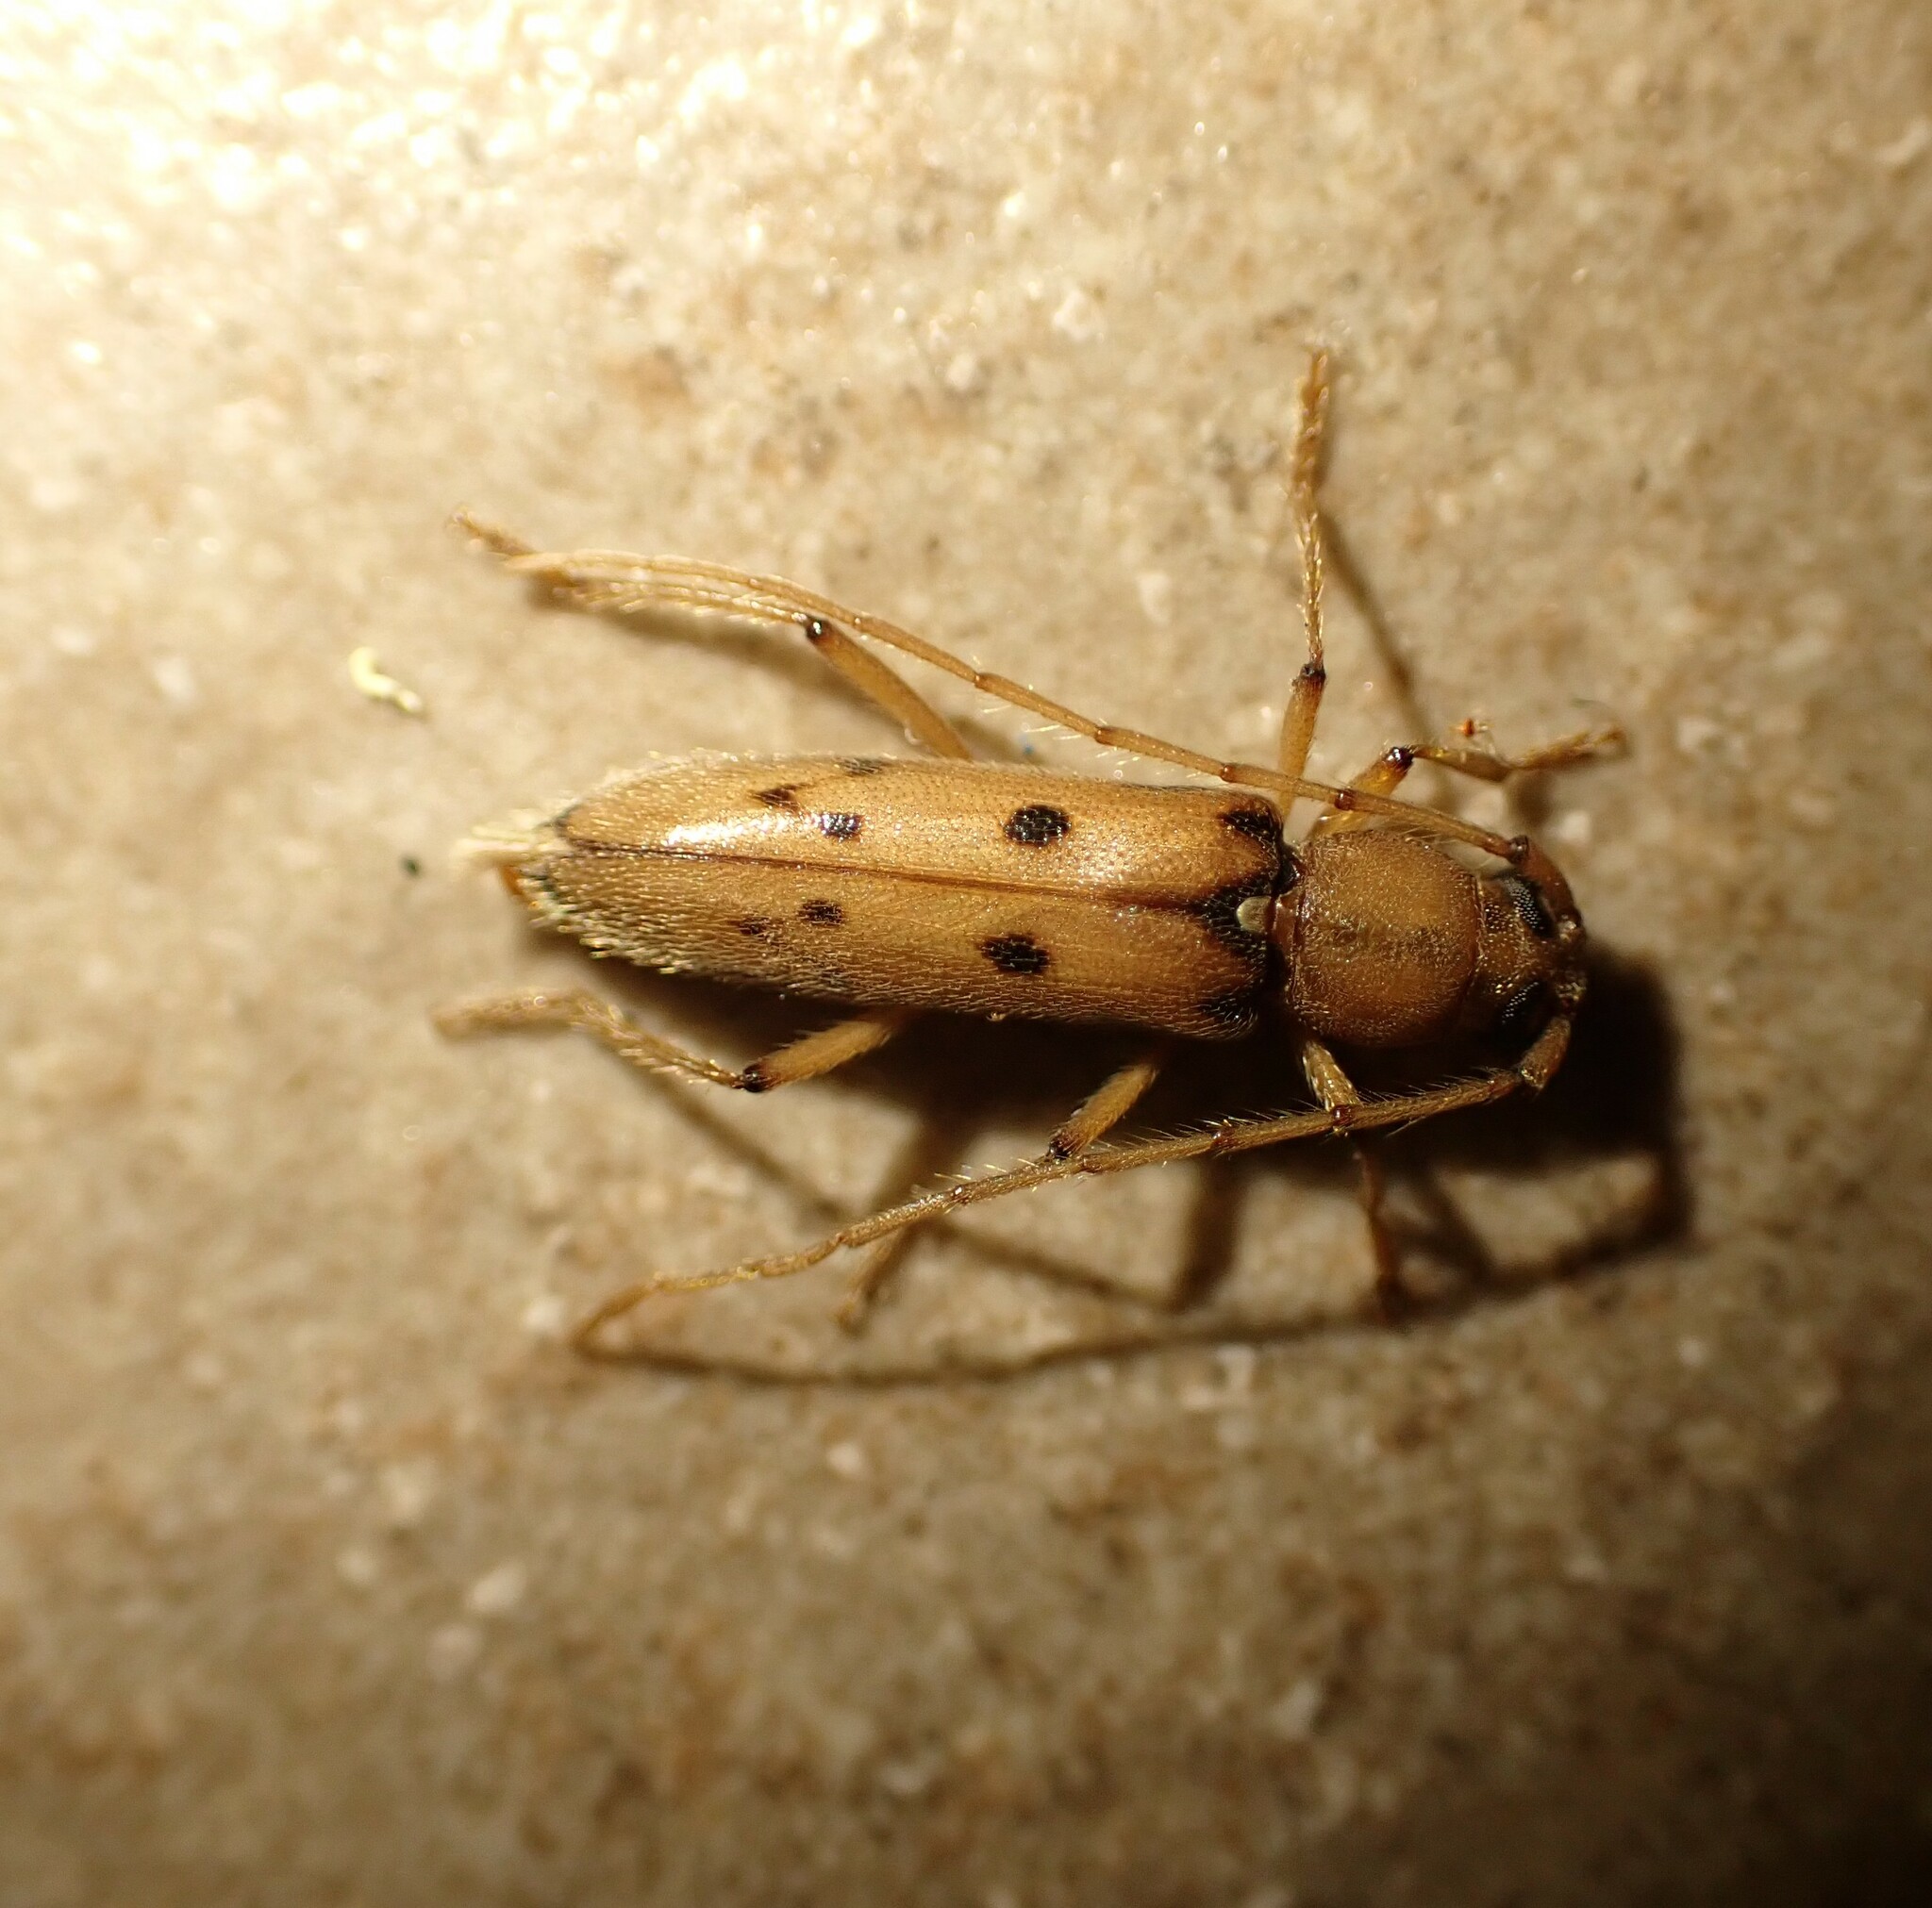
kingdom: Animalia
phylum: Arthropoda
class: Insecta
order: Coleoptera
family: Cerambycidae
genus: Achryson
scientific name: Achryson surinamum
